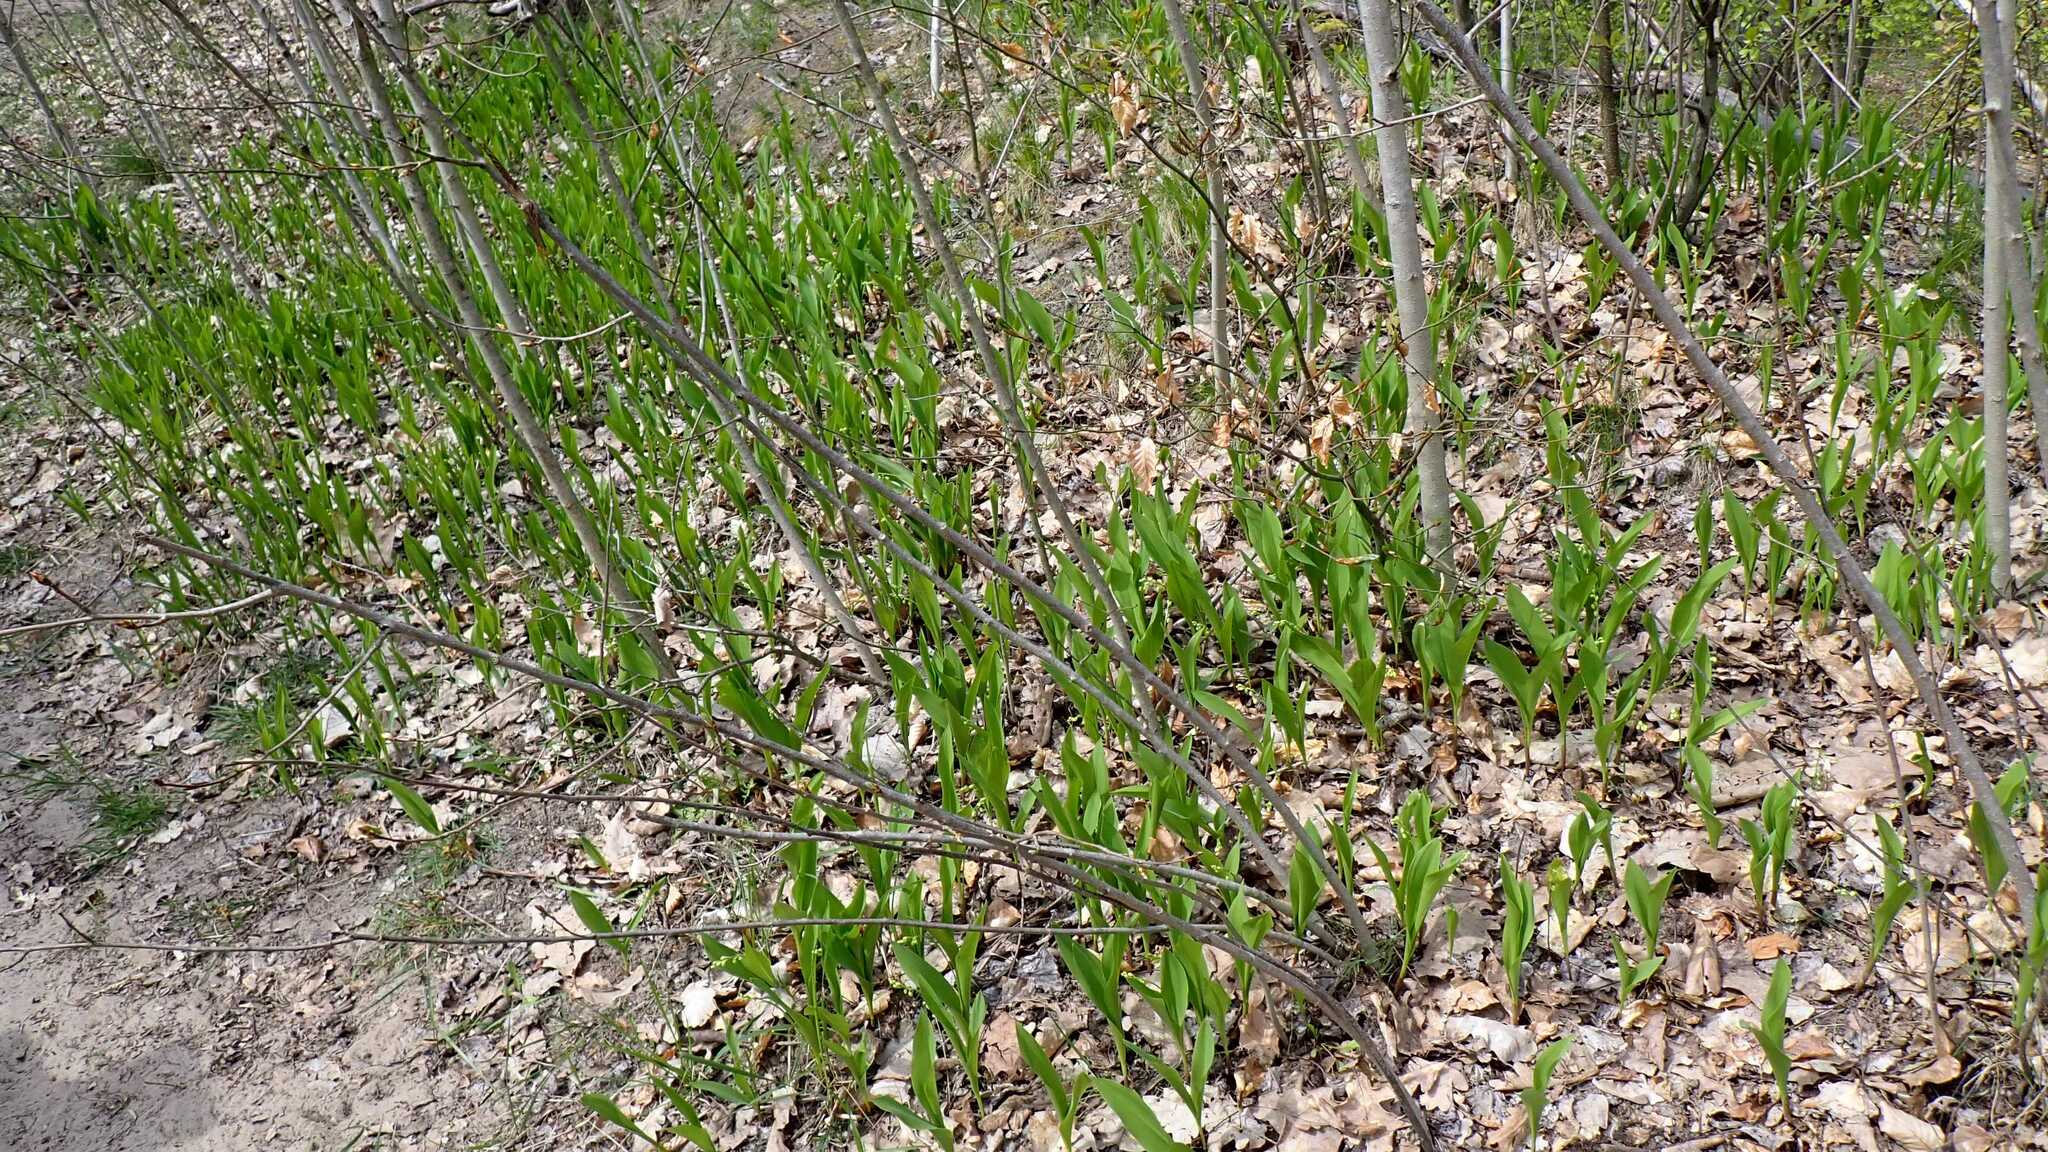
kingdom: Plantae
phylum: Tracheophyta
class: Liliopsida
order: Asparagales
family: Asparagaceae
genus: Convallaria
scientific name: Convallaria majalis
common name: Lily-of-the-valley
